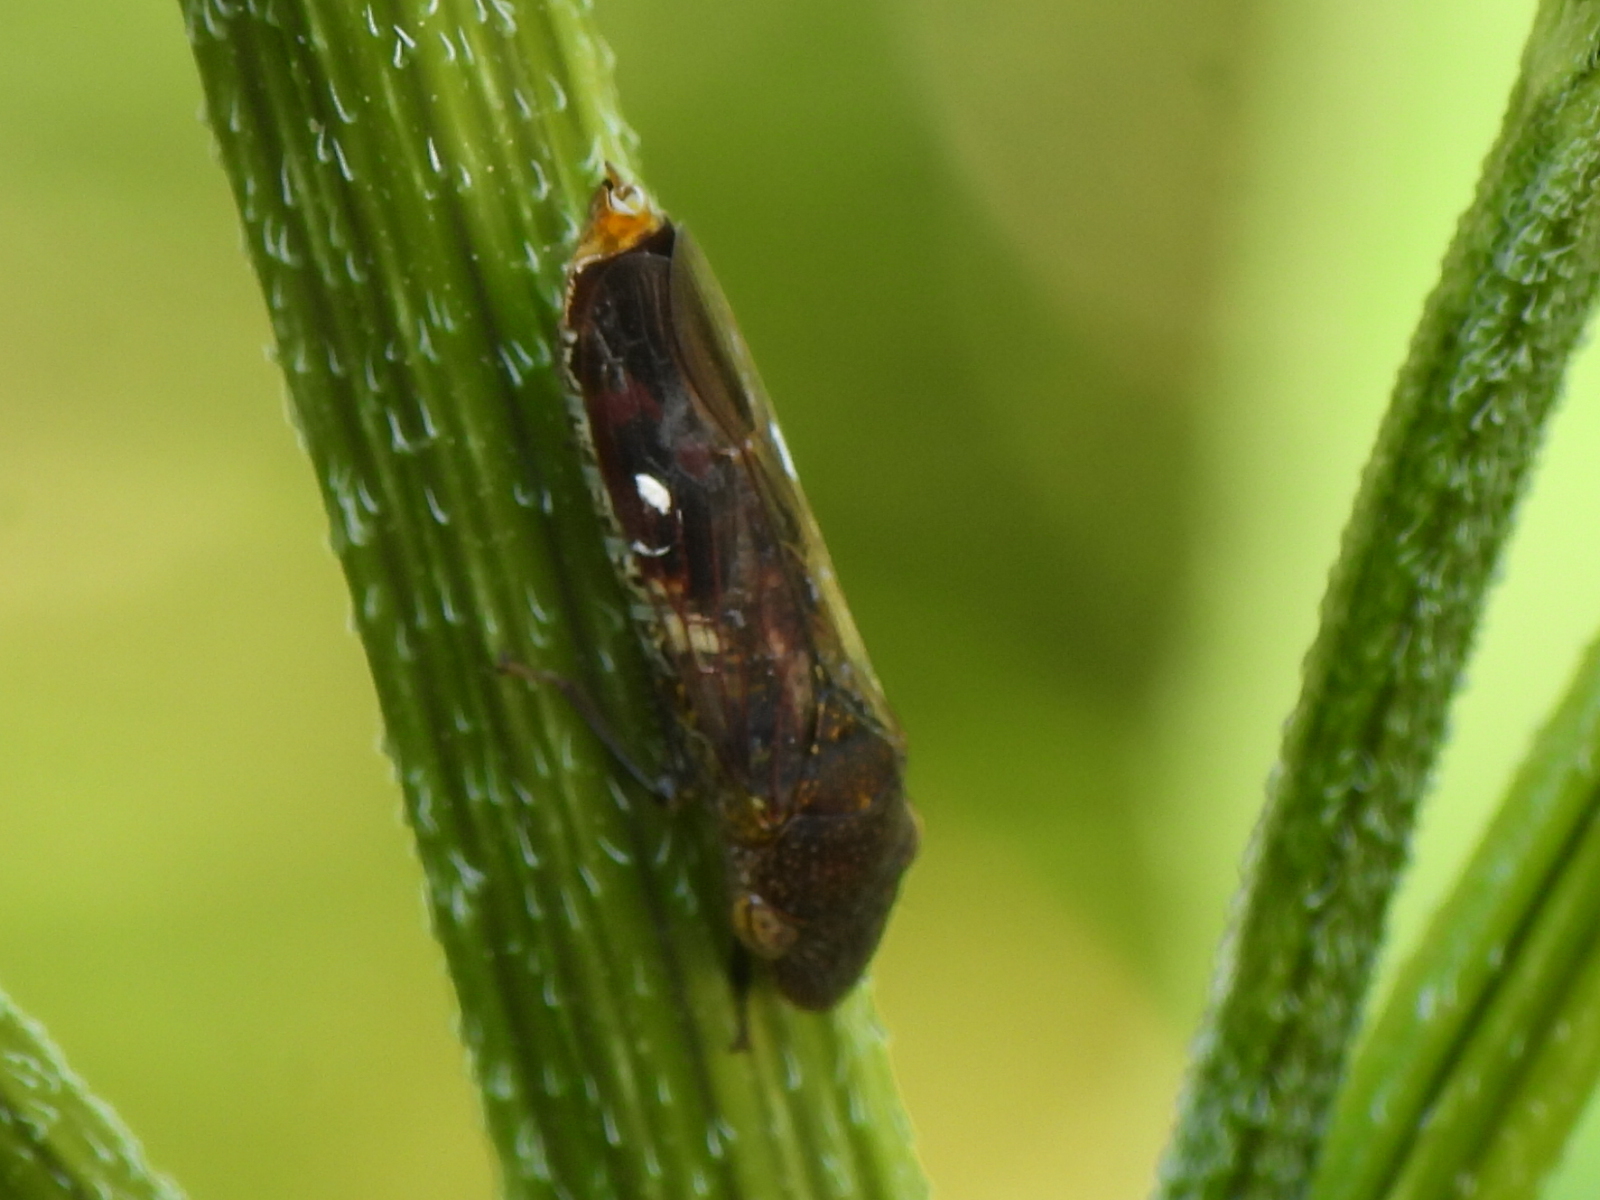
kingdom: Animalia
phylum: Arthropoda
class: Insecta
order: Hemiptera
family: Cicadellidae
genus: Homalodisca
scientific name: Homalodisca vitripennis
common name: Glassy-winged sharpshooter
